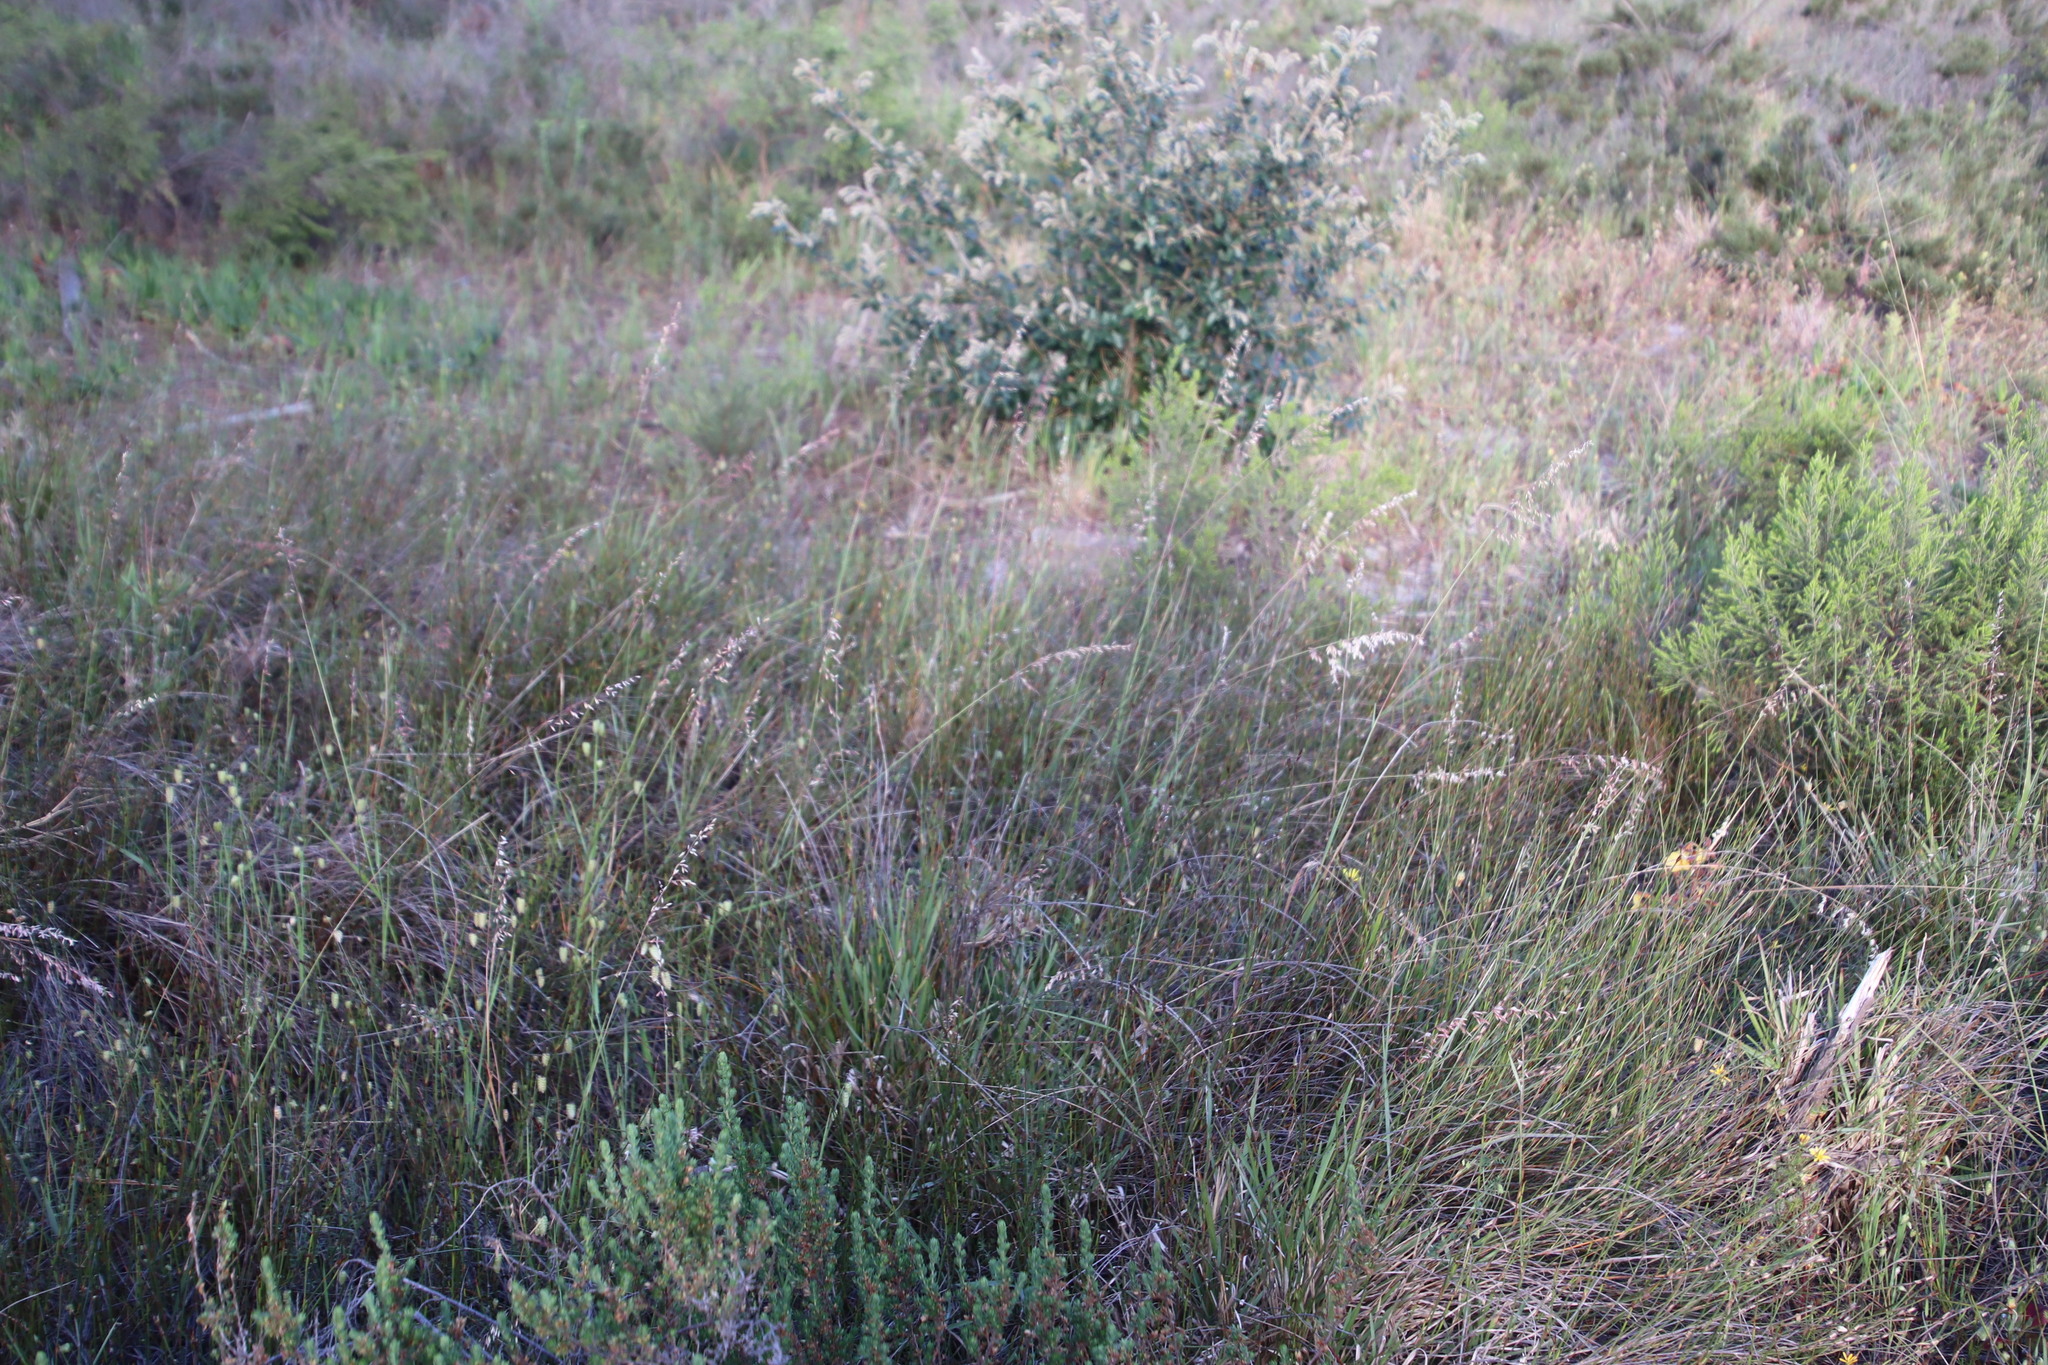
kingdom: Plantae
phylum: Tracheophyta
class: Liliopsida
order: Poales
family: Poaceae
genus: Ehrharta
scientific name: Ehrharta calycina
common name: Perennial veldtgrass
